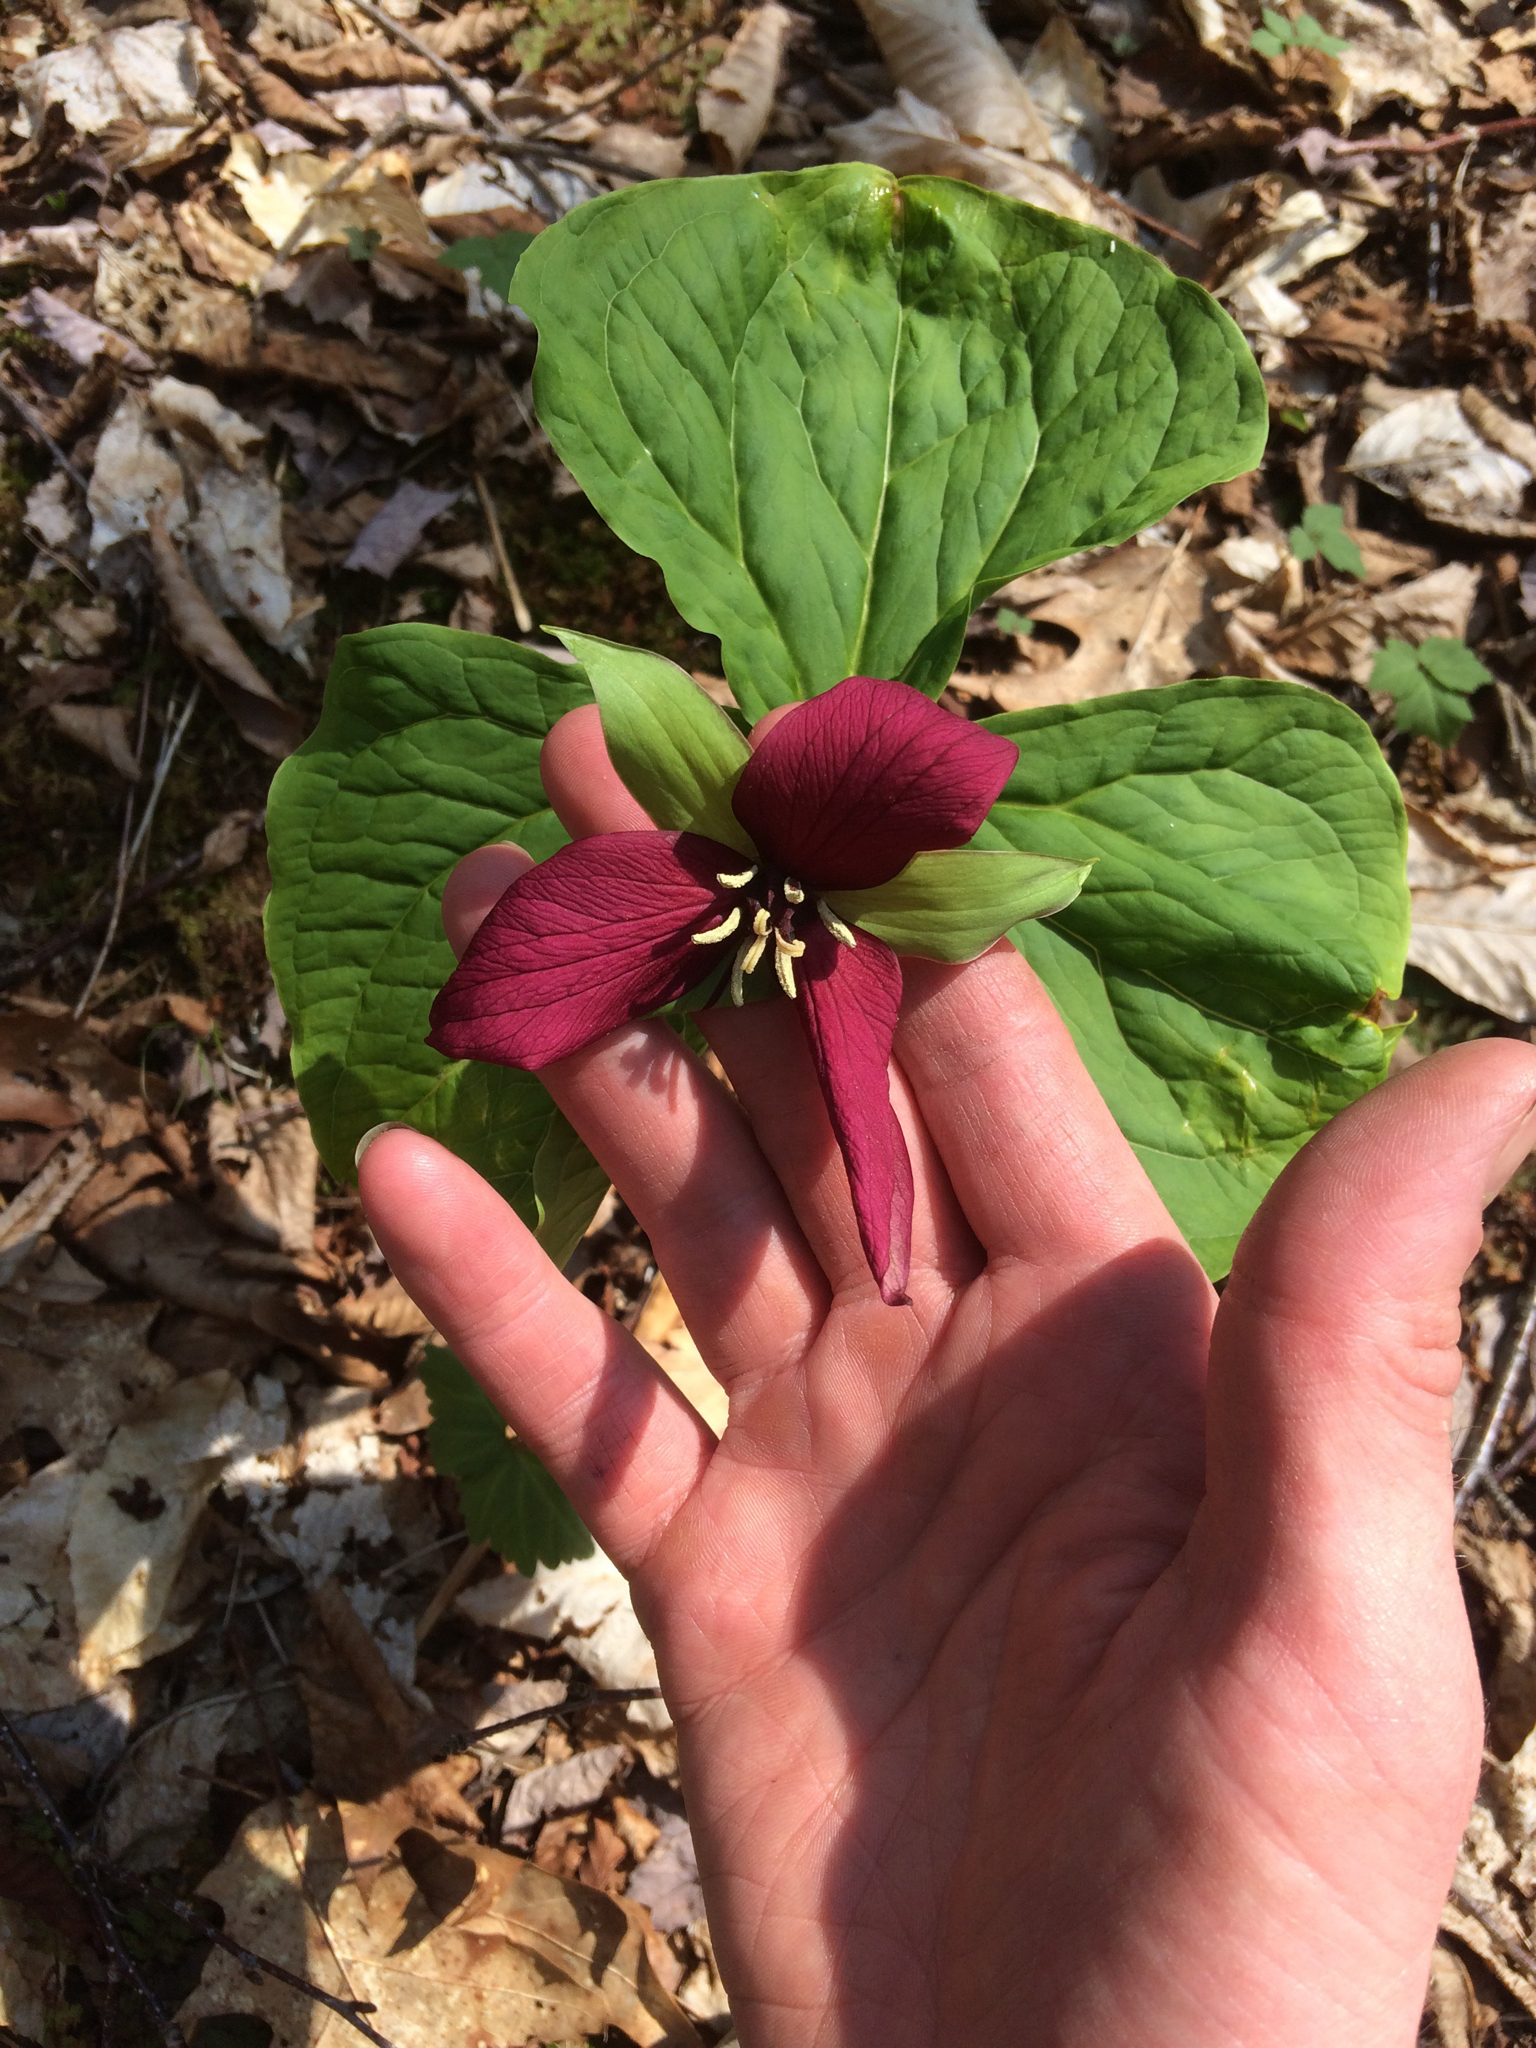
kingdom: Plantae
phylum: Tracheophyta
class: Liliopsida
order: Liliales
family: Melanthiaceae
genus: Trillium
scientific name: Trillium erectum
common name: Purple trillium
